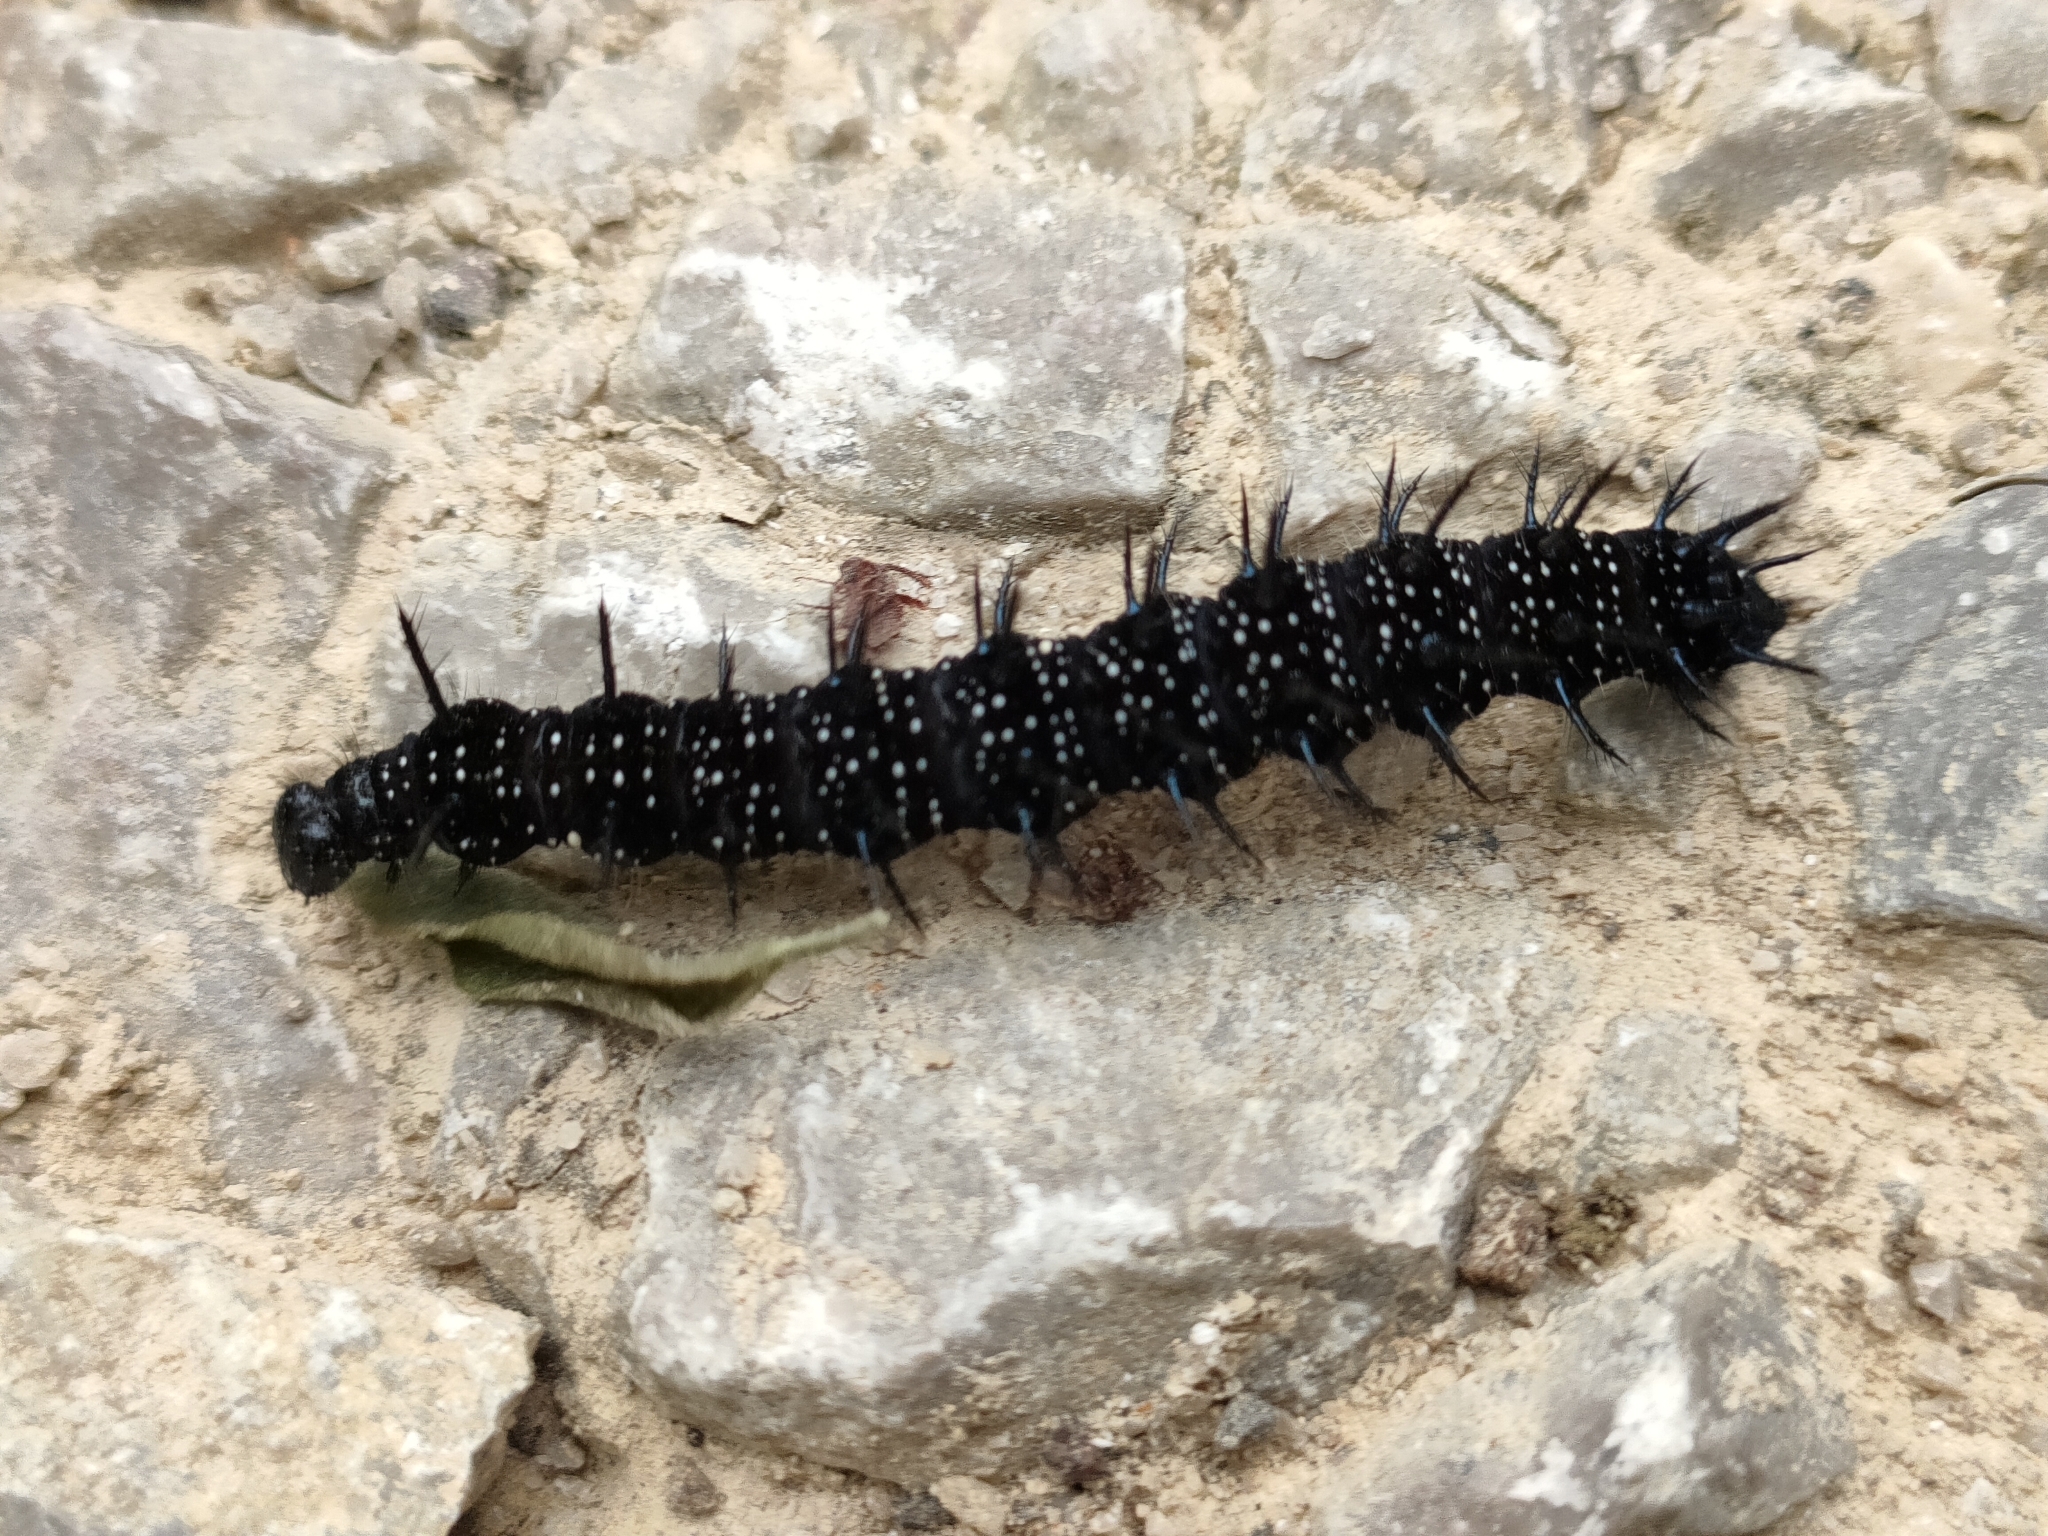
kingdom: Animalia
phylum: Arthropoda
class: Insecta
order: Lepidoptera
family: Nymphalidae
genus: Aglais
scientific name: Aglais io
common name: Peacock
